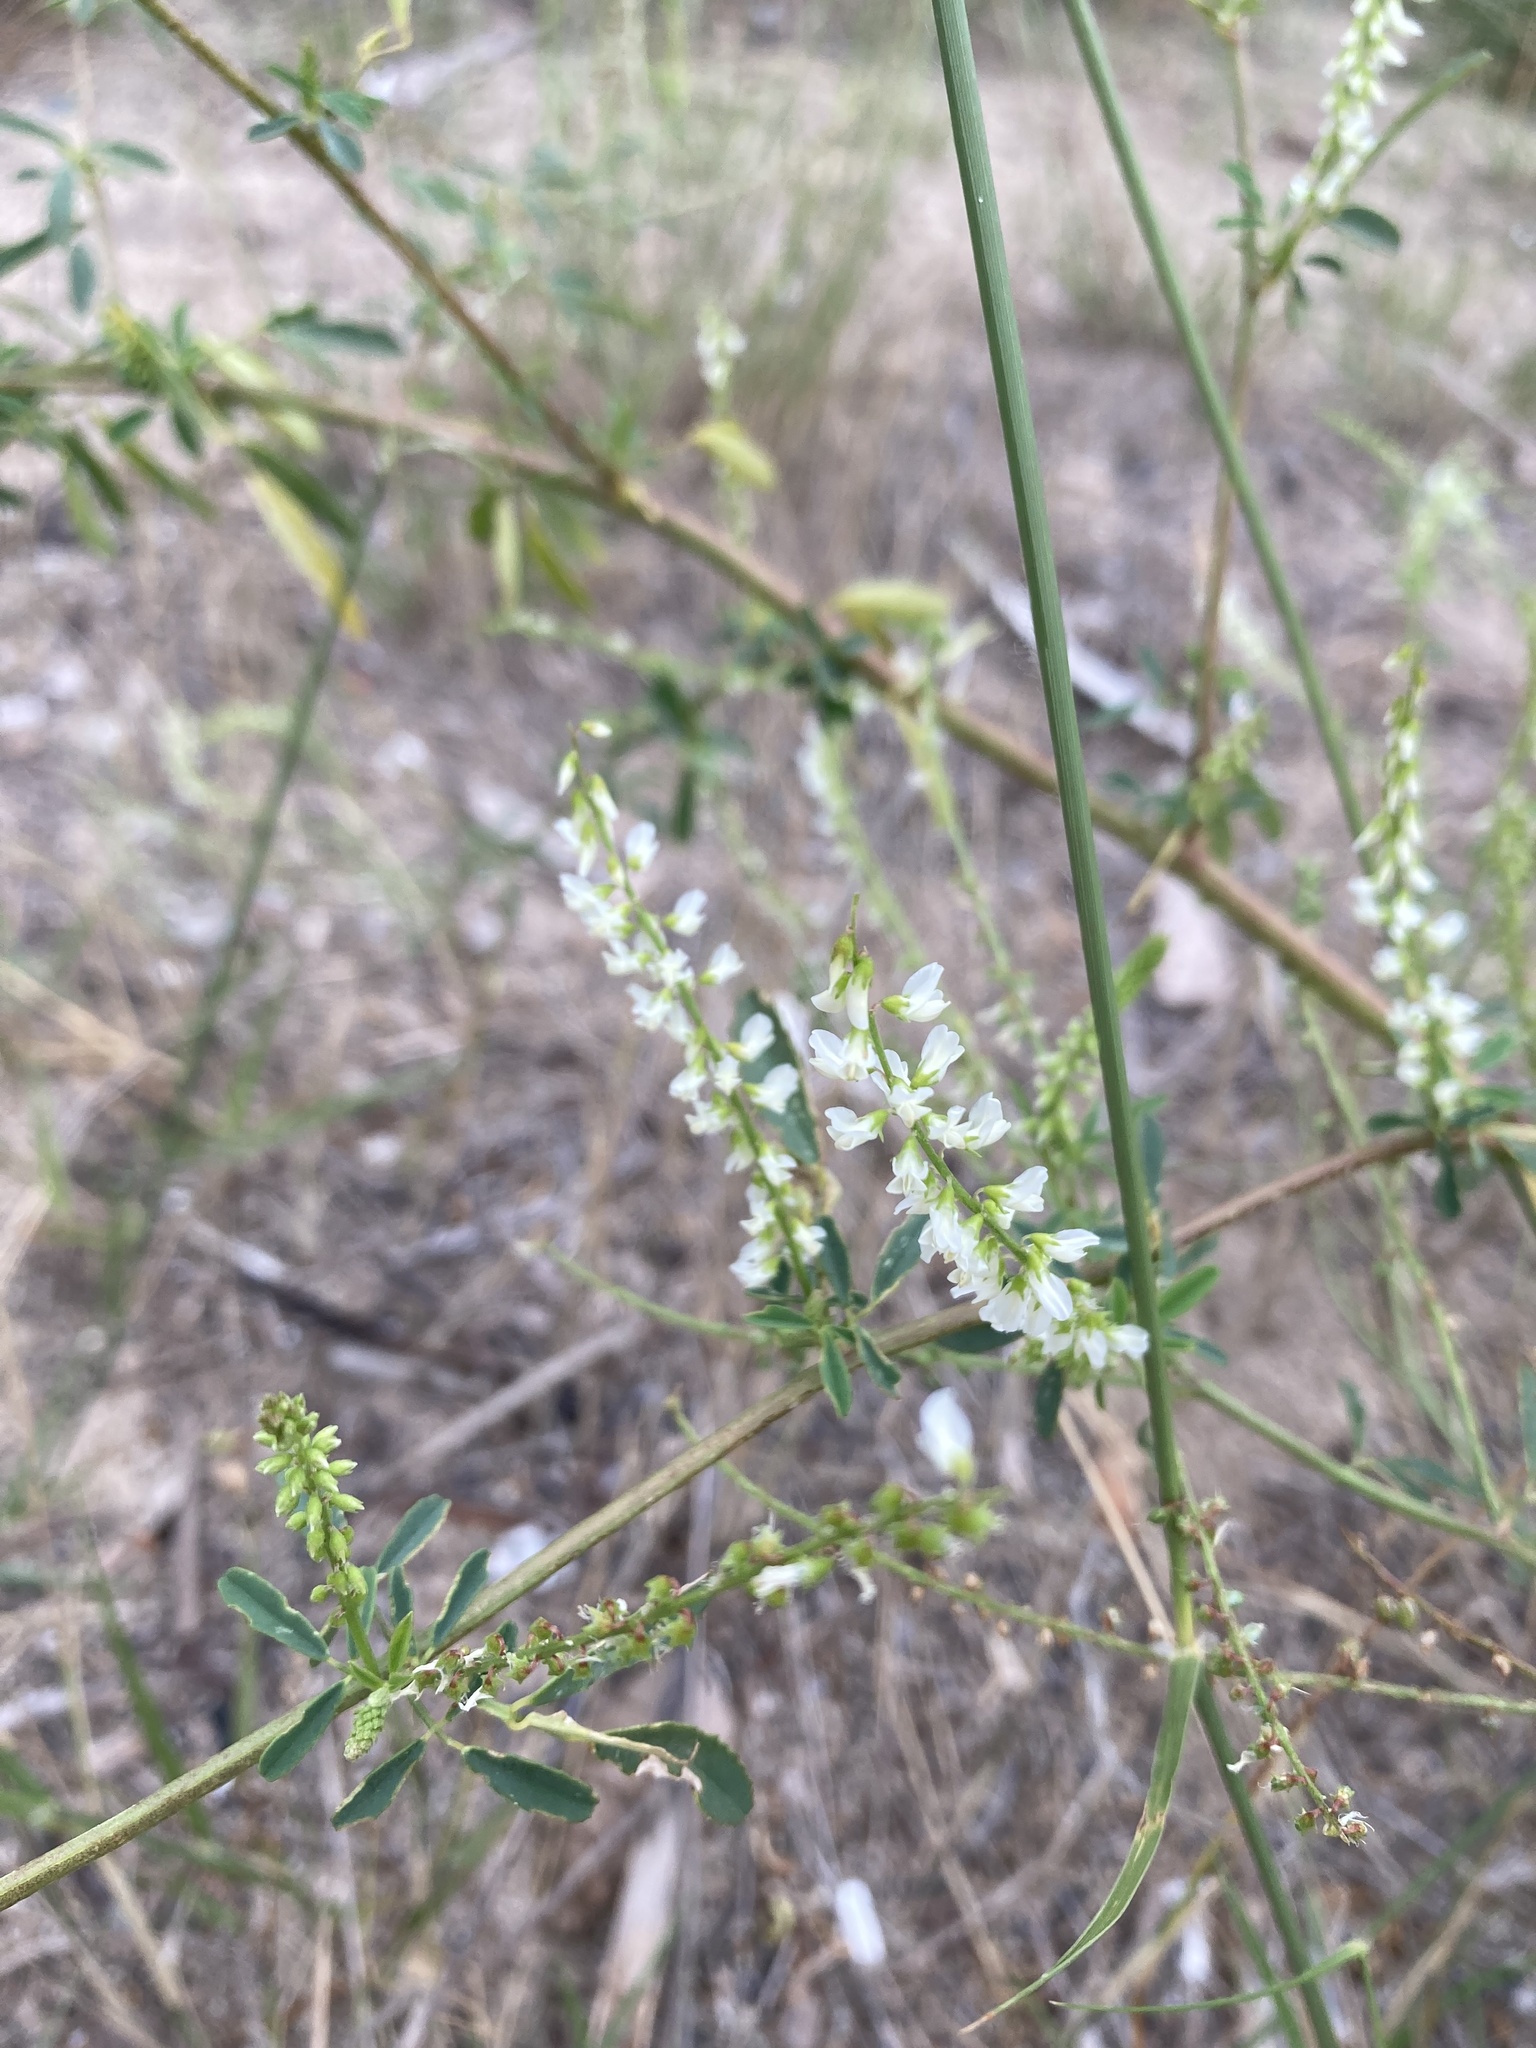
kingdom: Plantae
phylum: Tracheophyta
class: Magnoliopsida
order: Fabales
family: Fabaceae
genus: Melilotus
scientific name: Melilotus albus
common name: White melilot
